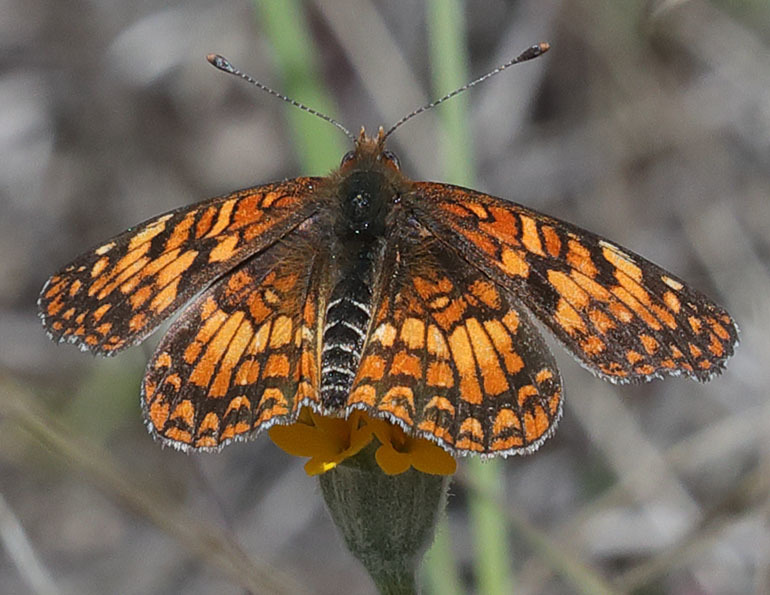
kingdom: Animalia
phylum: Arthropoda
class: Insecta
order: Lepidoptera
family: Nymphalidae
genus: Chlosyne
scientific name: Chlosyne gabbii
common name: Gabb's checkerspot
